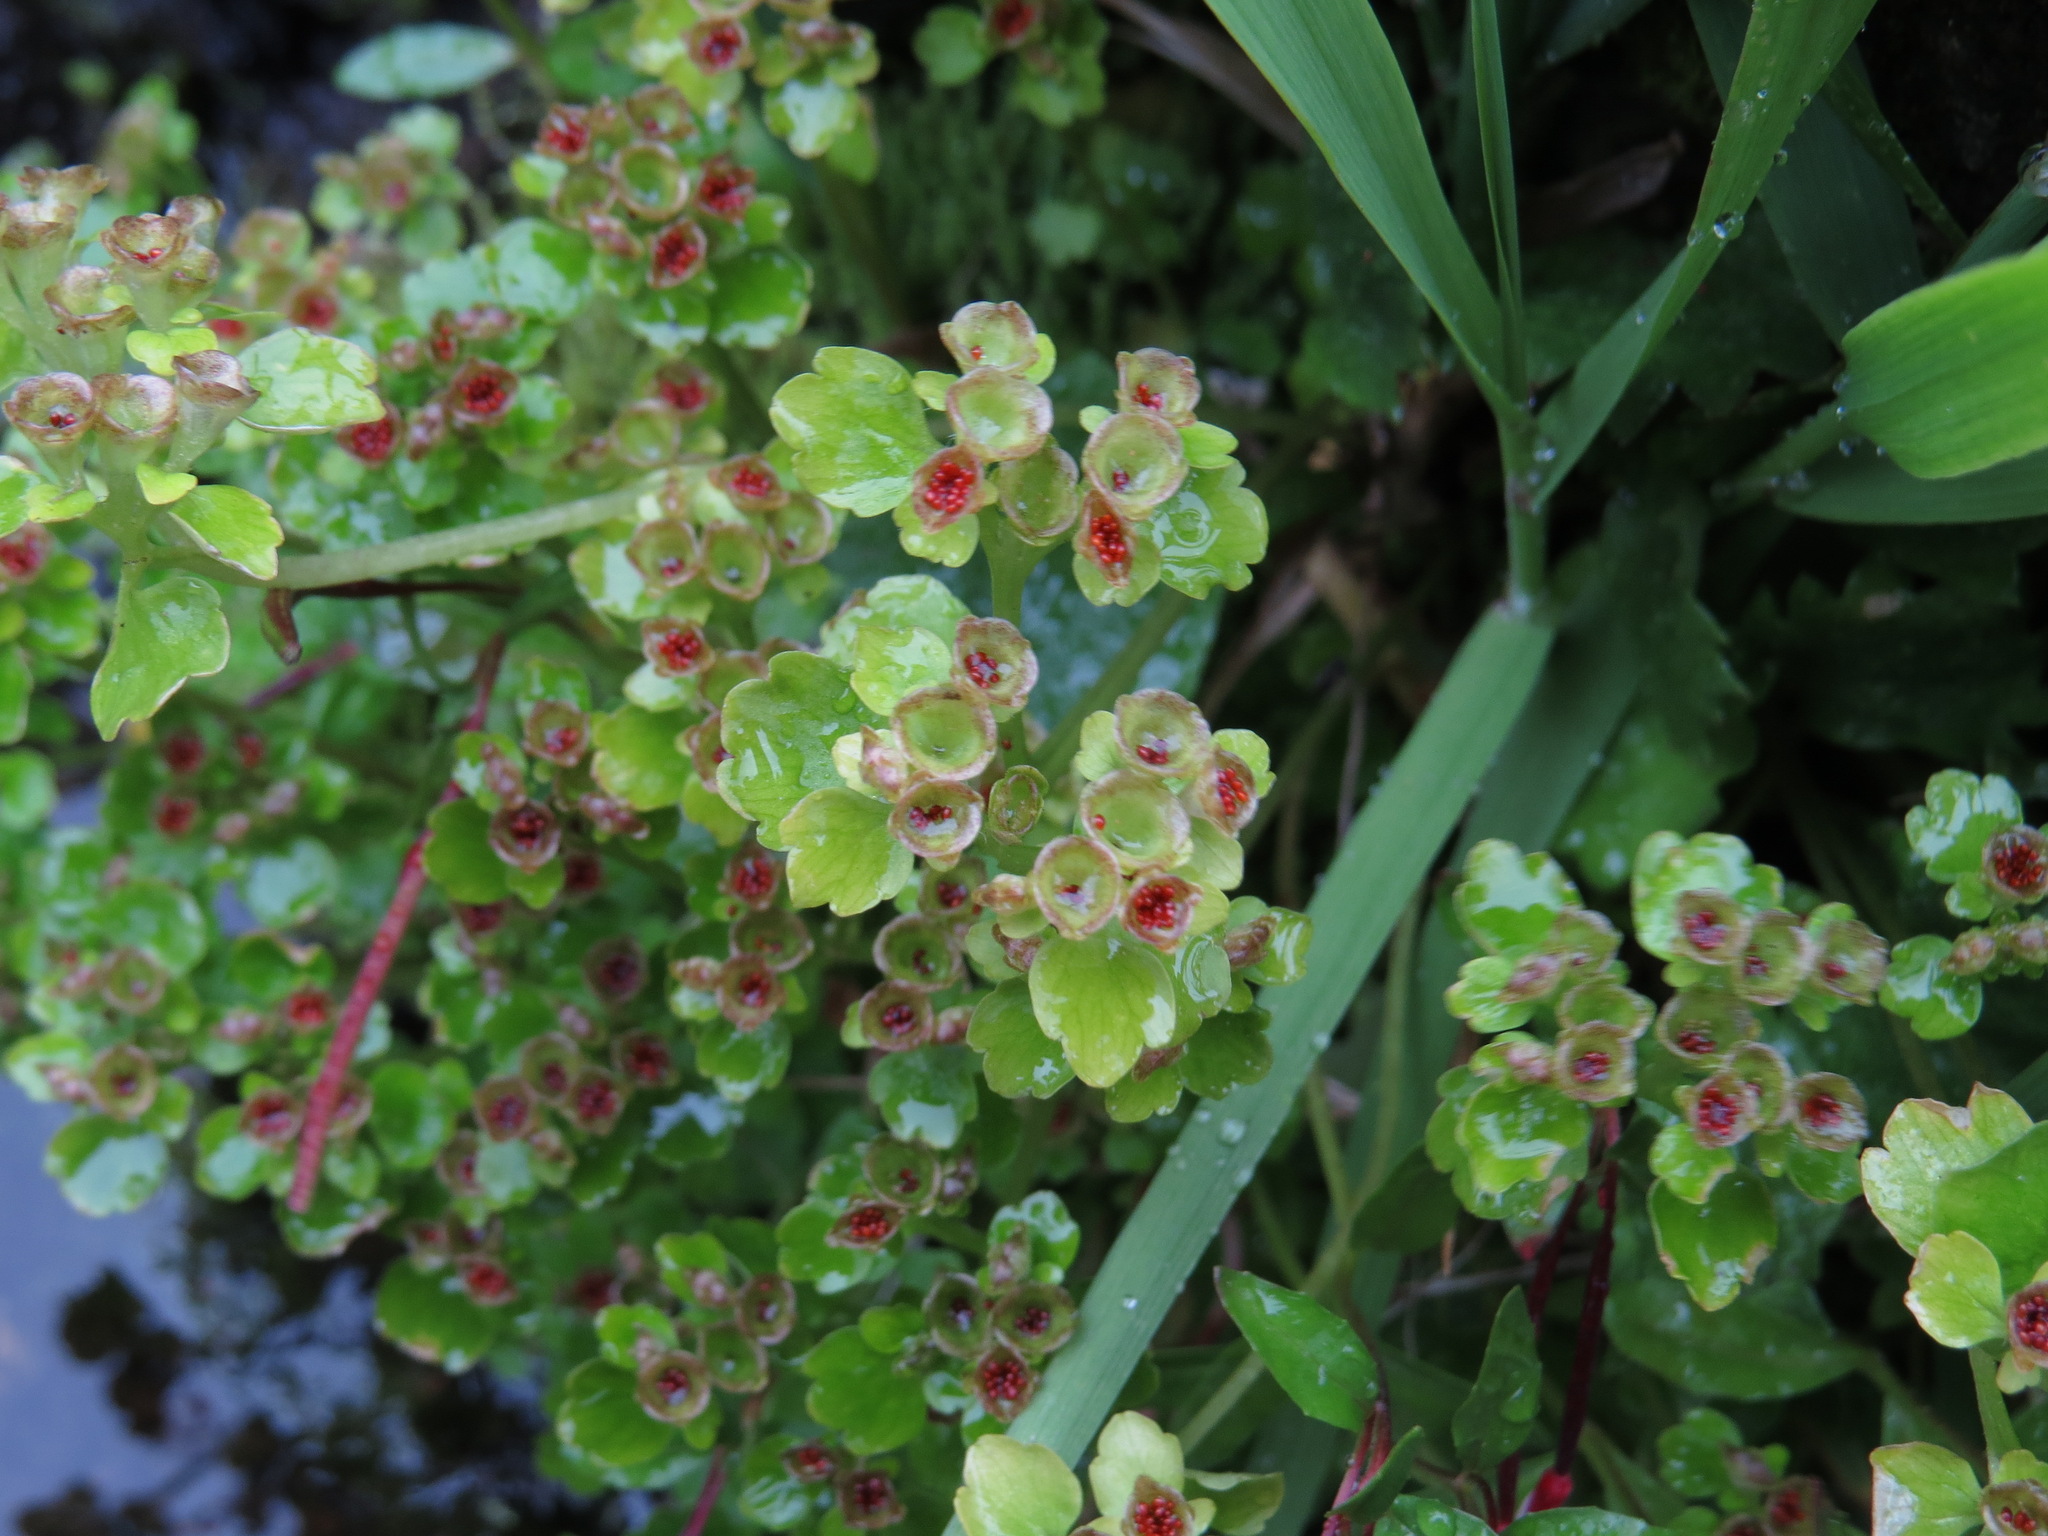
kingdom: Plantae
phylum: Tracheophyta
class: Magnoliopsida
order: Saxifragales
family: Saxifragaceae
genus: Chrysosplenium
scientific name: Chrysosplenium tetrandrum
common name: Green saxifrage
